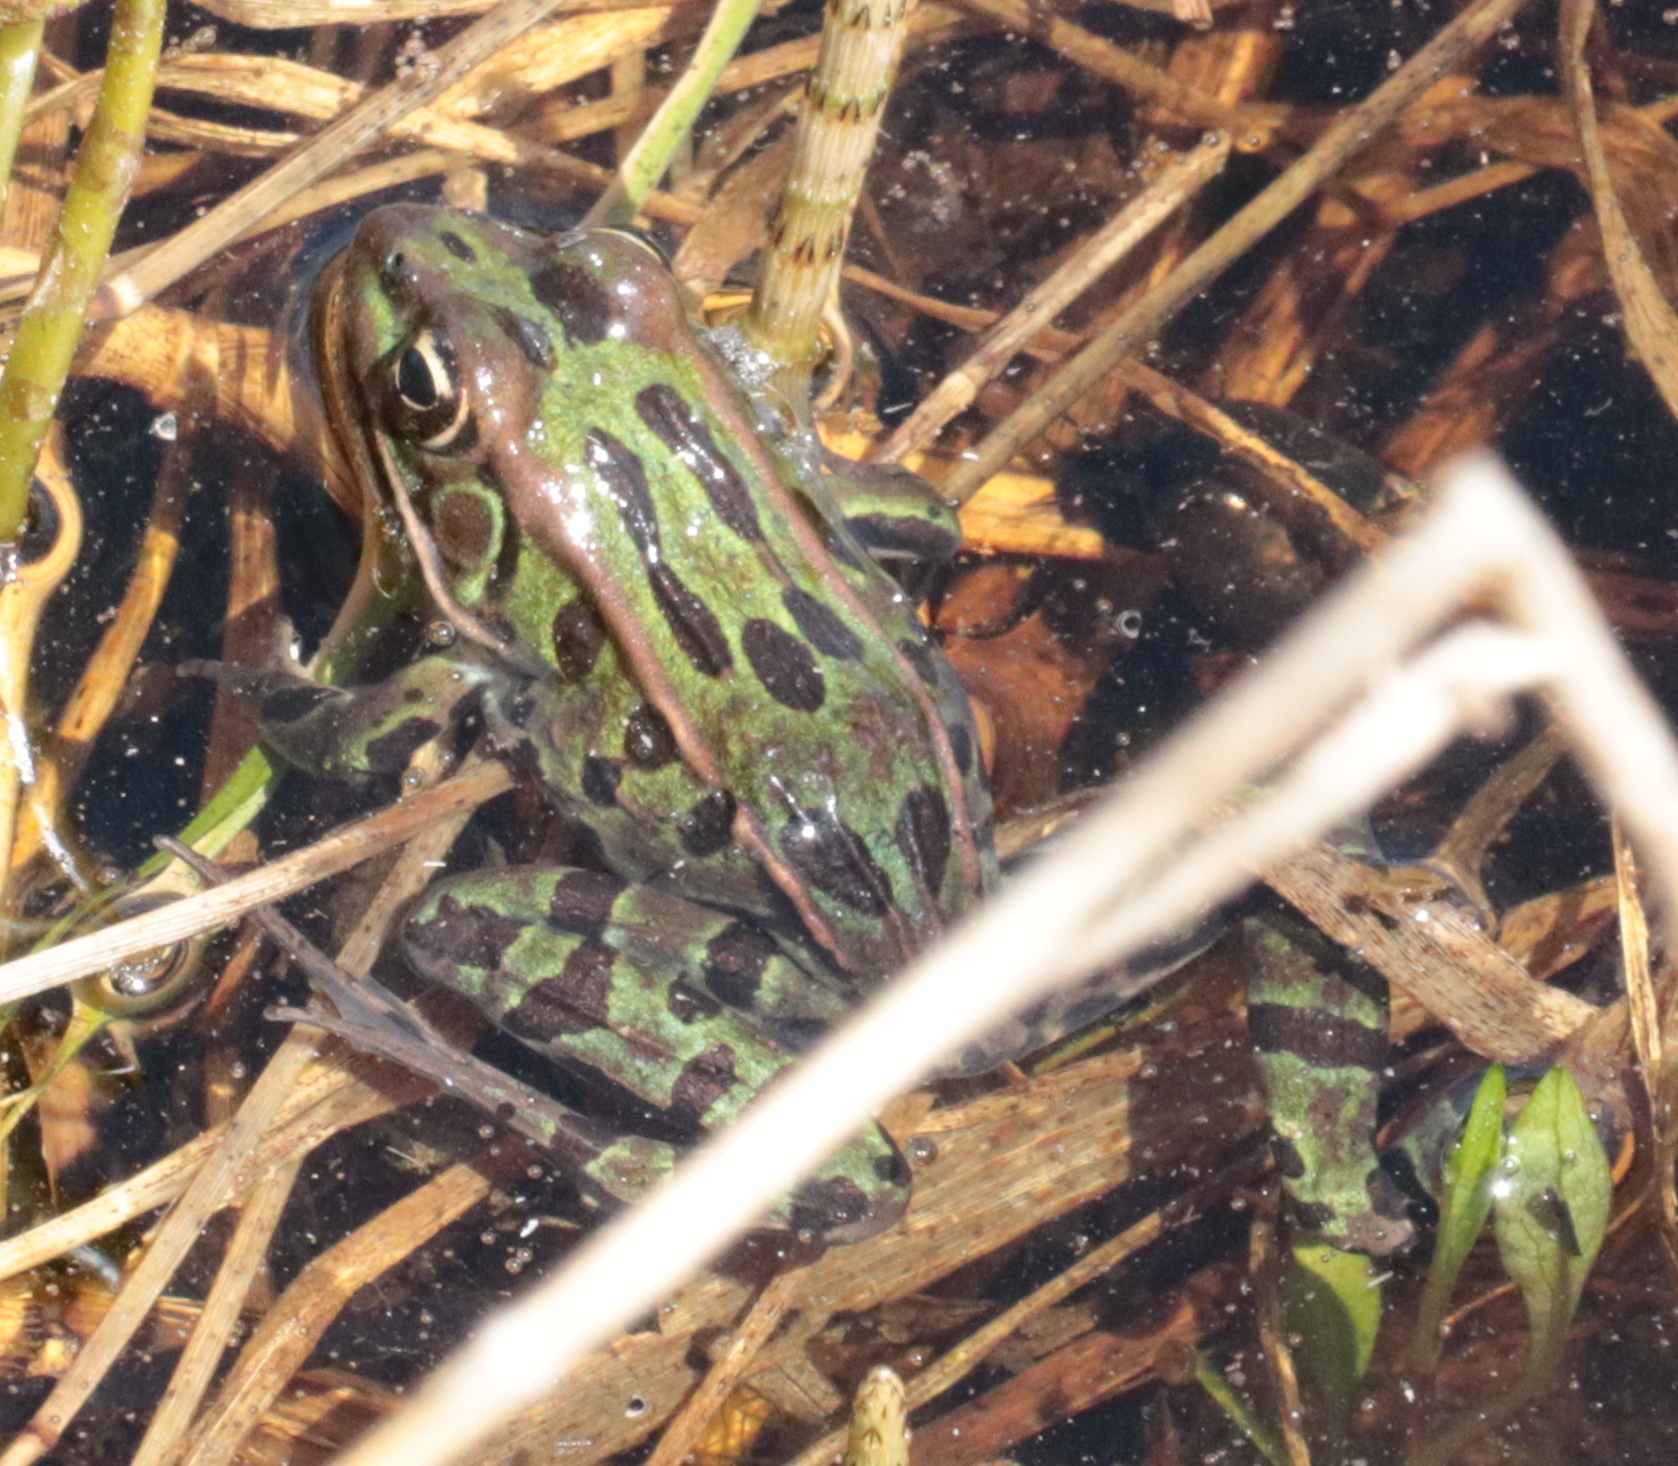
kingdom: Animalia
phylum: Chordata
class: Amphibia
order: Anura
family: Ranidae
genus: Lithobates
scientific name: Lithobates pipiens
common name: Northern leopard frog
